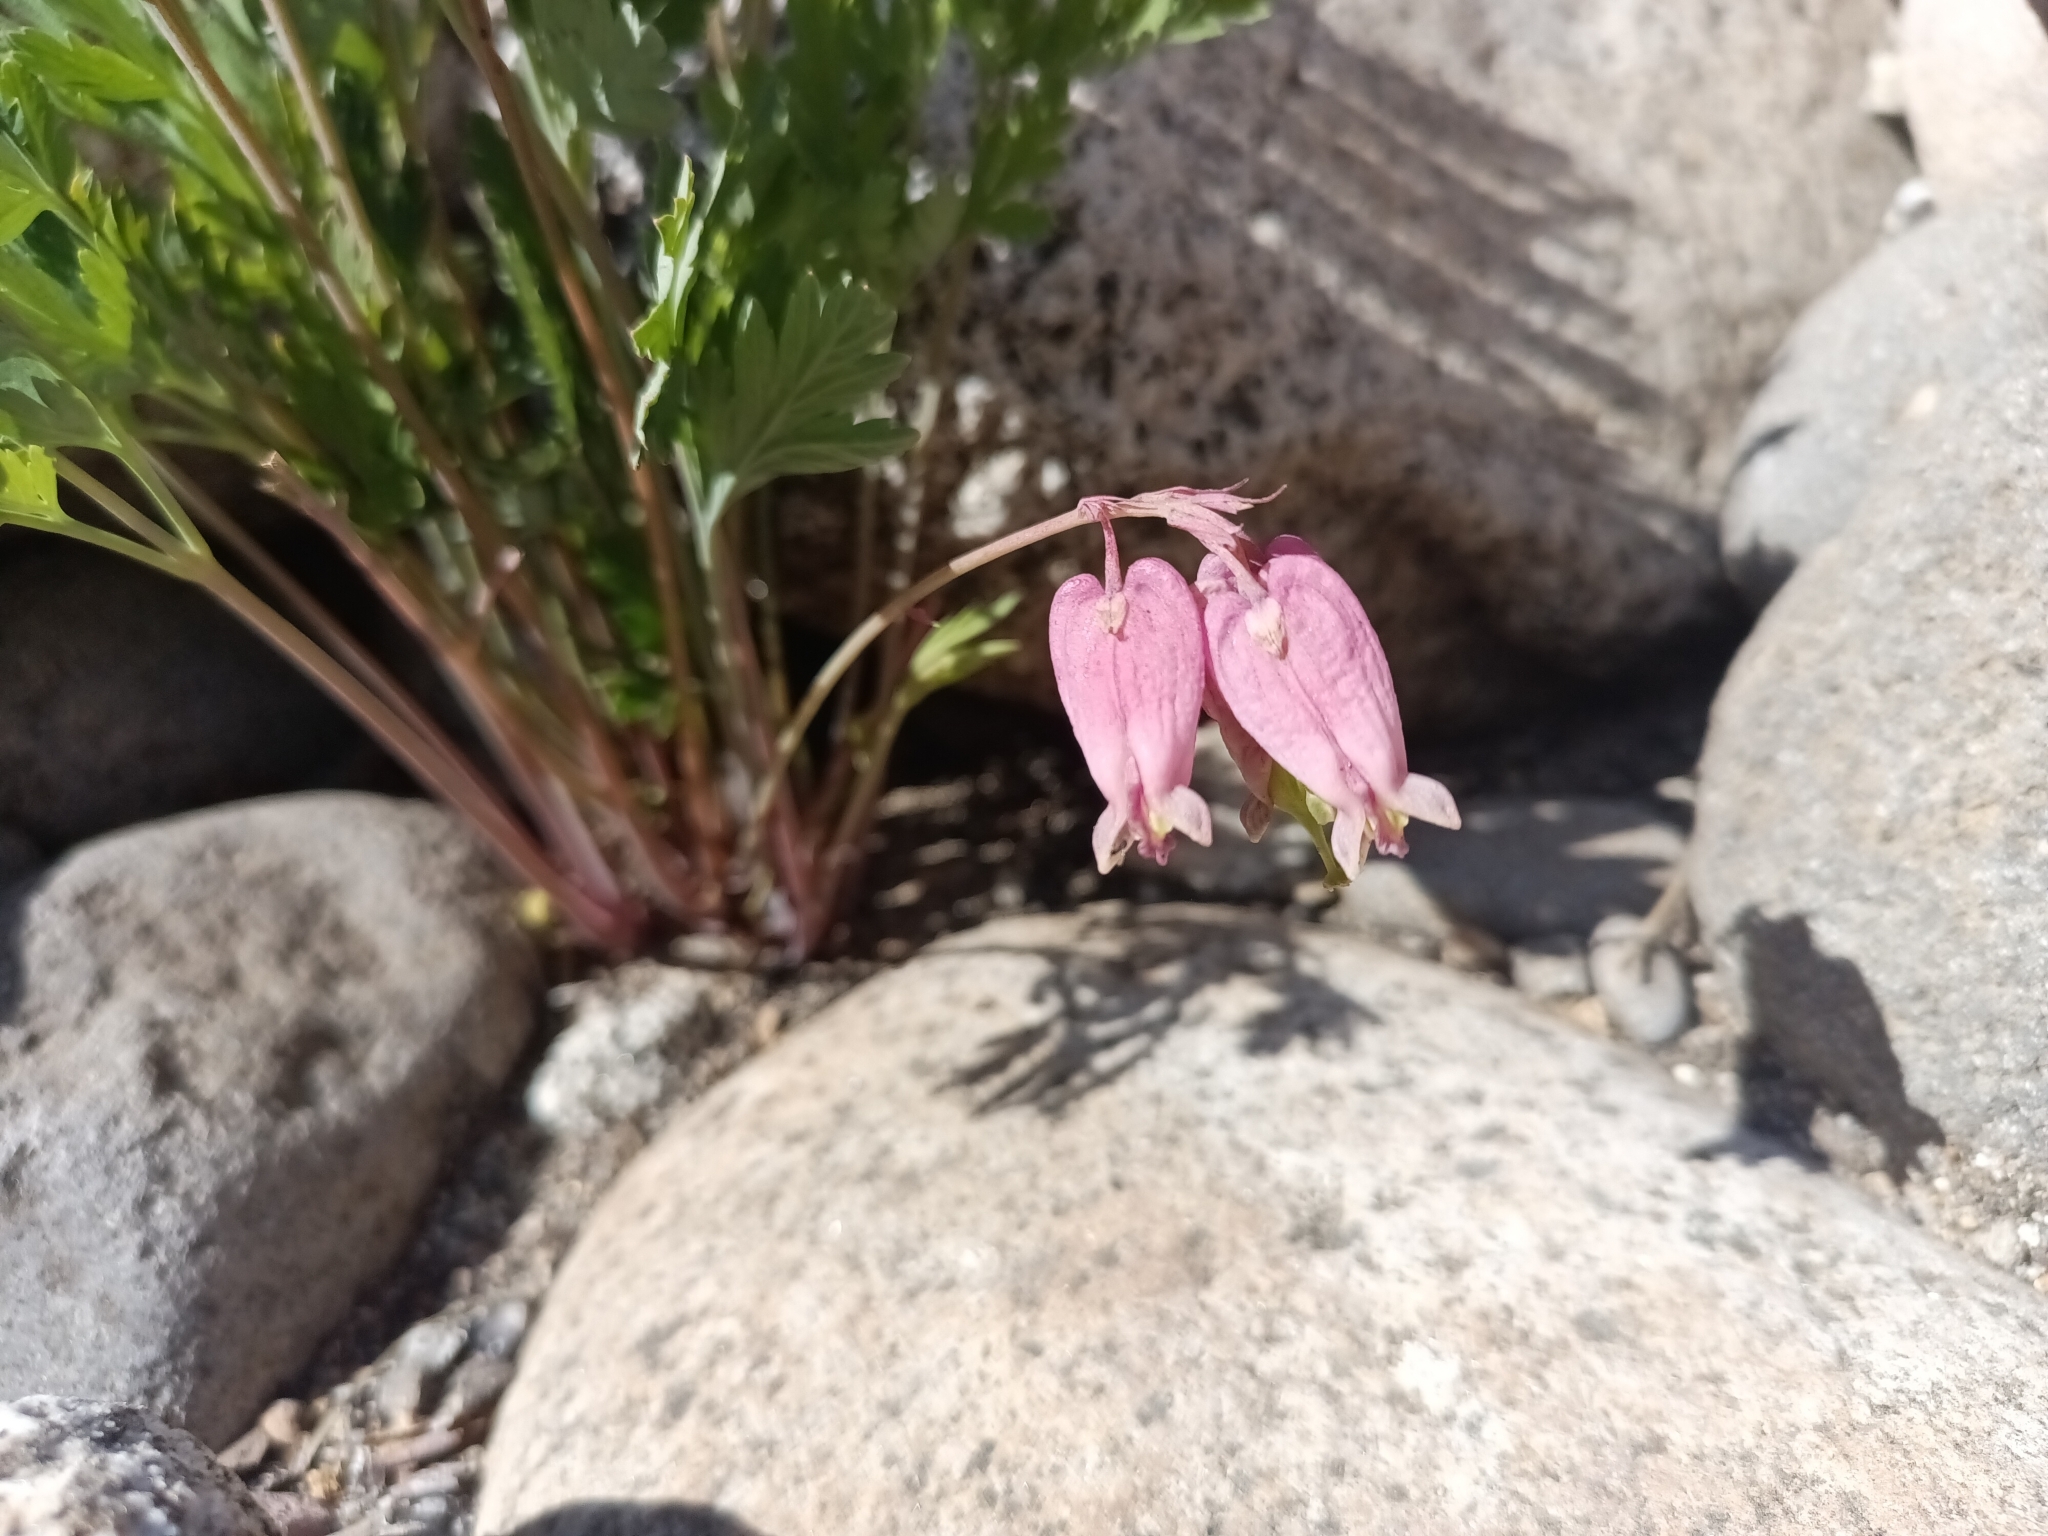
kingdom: Plantae
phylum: Tracheophyta
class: Magnoliopsida
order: Ranunculales
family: Papaveraceae
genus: Dicentra
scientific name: Dicentra formosa
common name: Bleeding-heart
